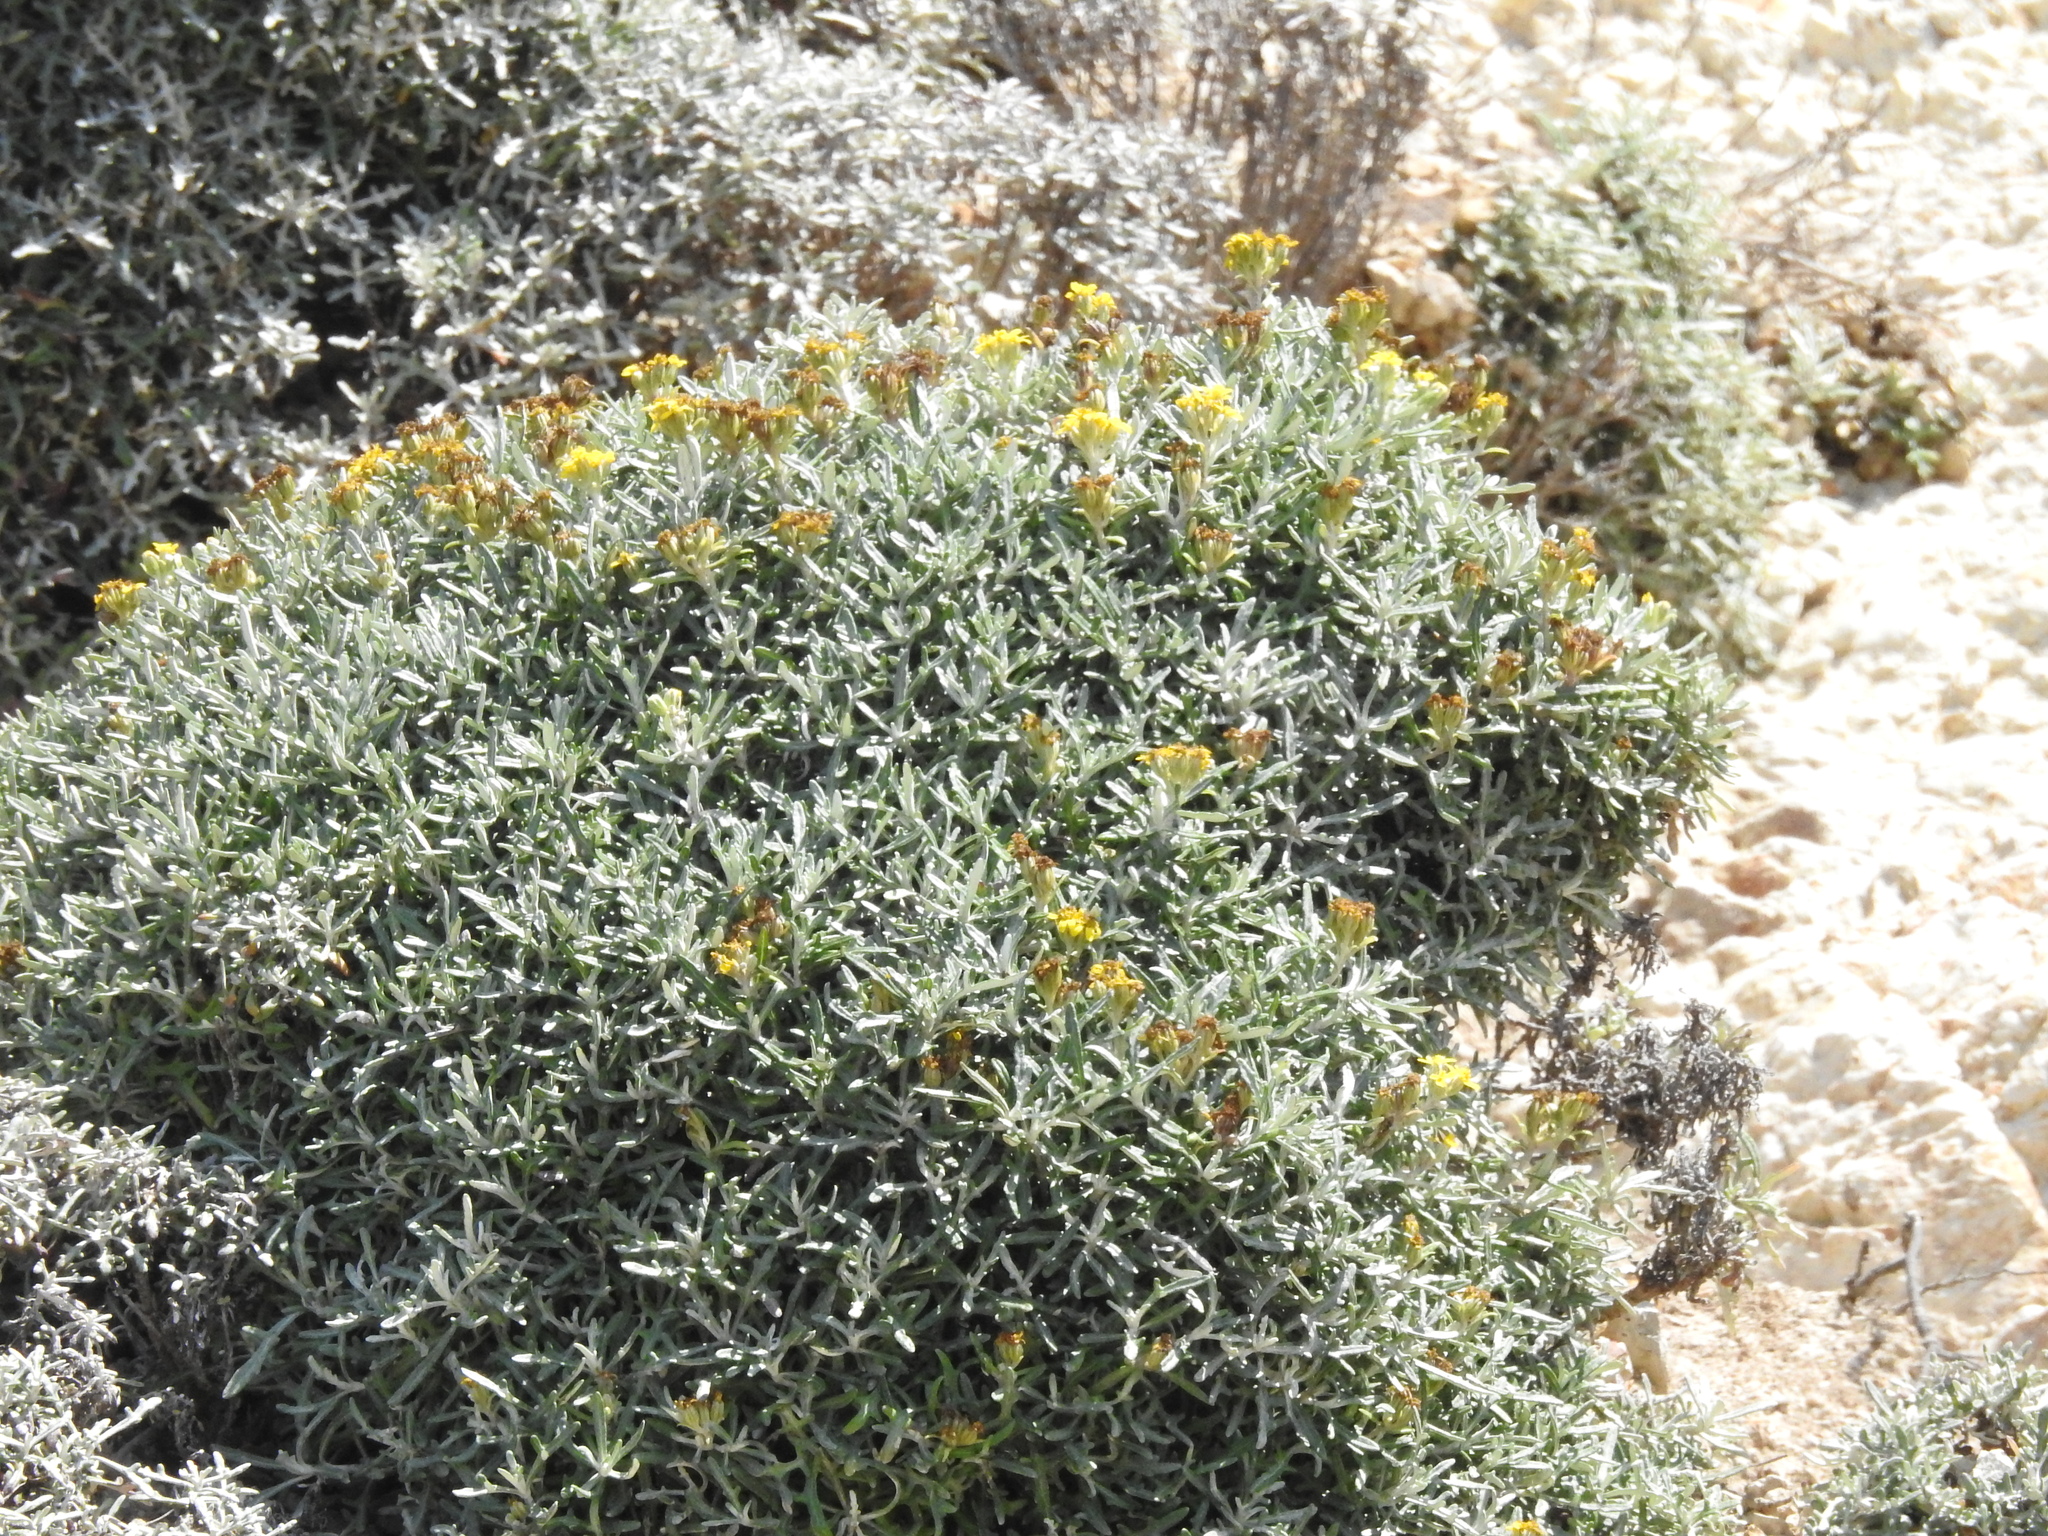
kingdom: Plantae
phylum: Tracheophyta
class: Magnoliopsida
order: Asterales
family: Asteraceae
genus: Eriophyllum
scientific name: Eriophyllum staechadifolium
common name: Lizardtail
